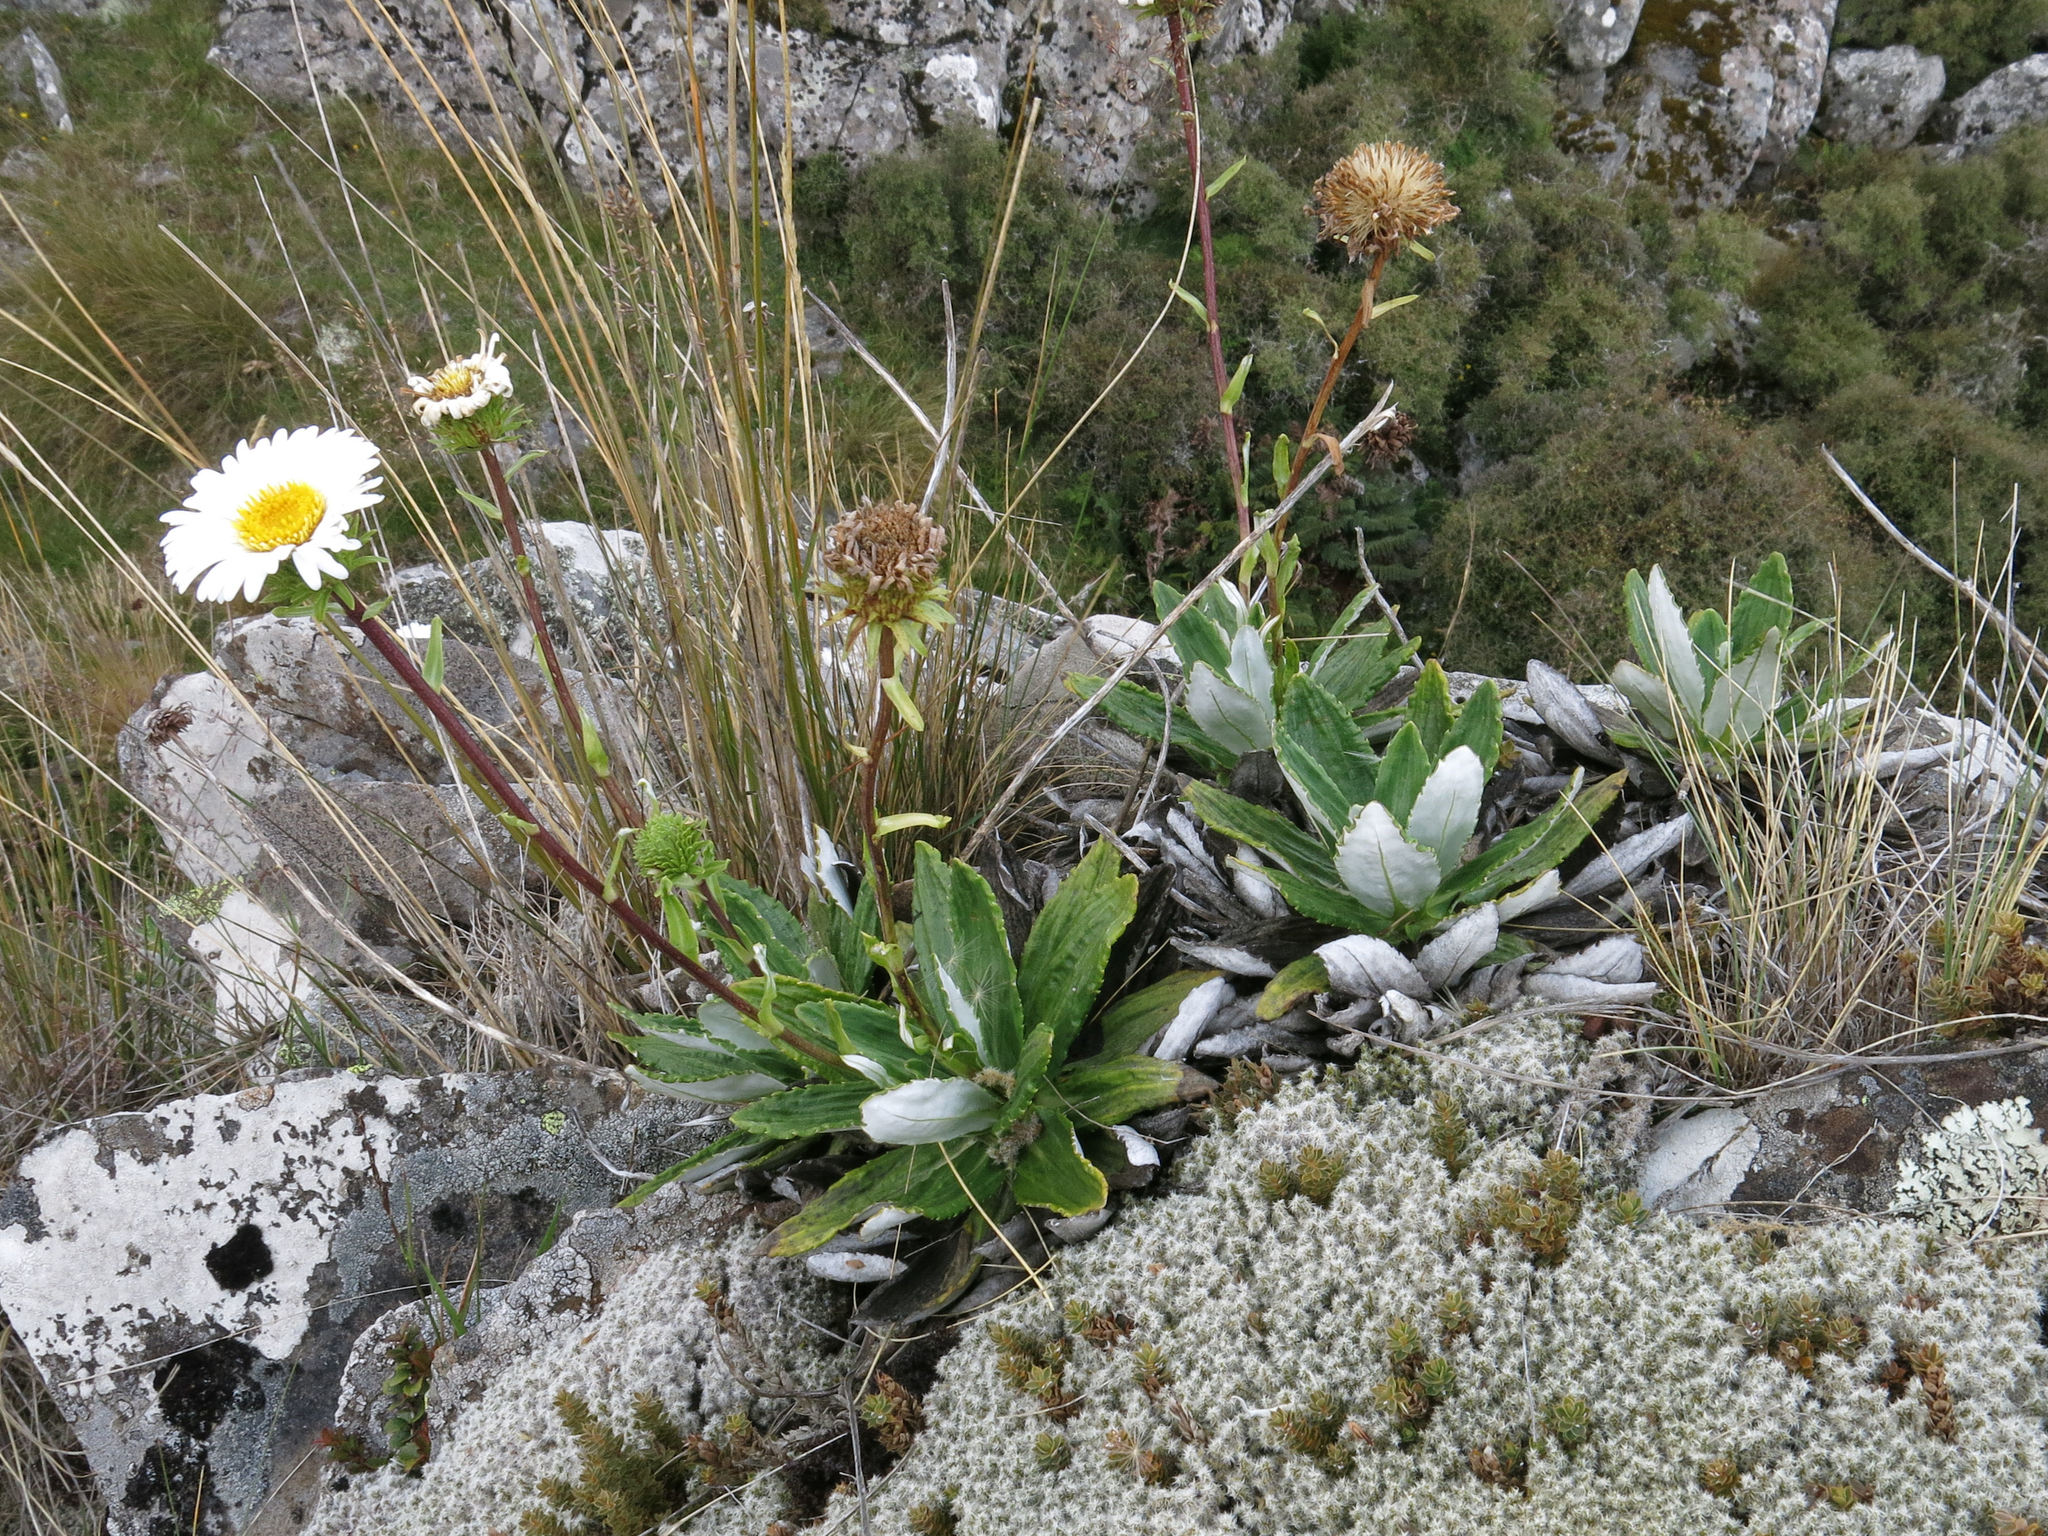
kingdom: Plantae
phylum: Tracheophyta
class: Magnoliopsida
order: Asterales
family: Asteraceae
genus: Celmisia
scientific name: Celmisia densiflora
